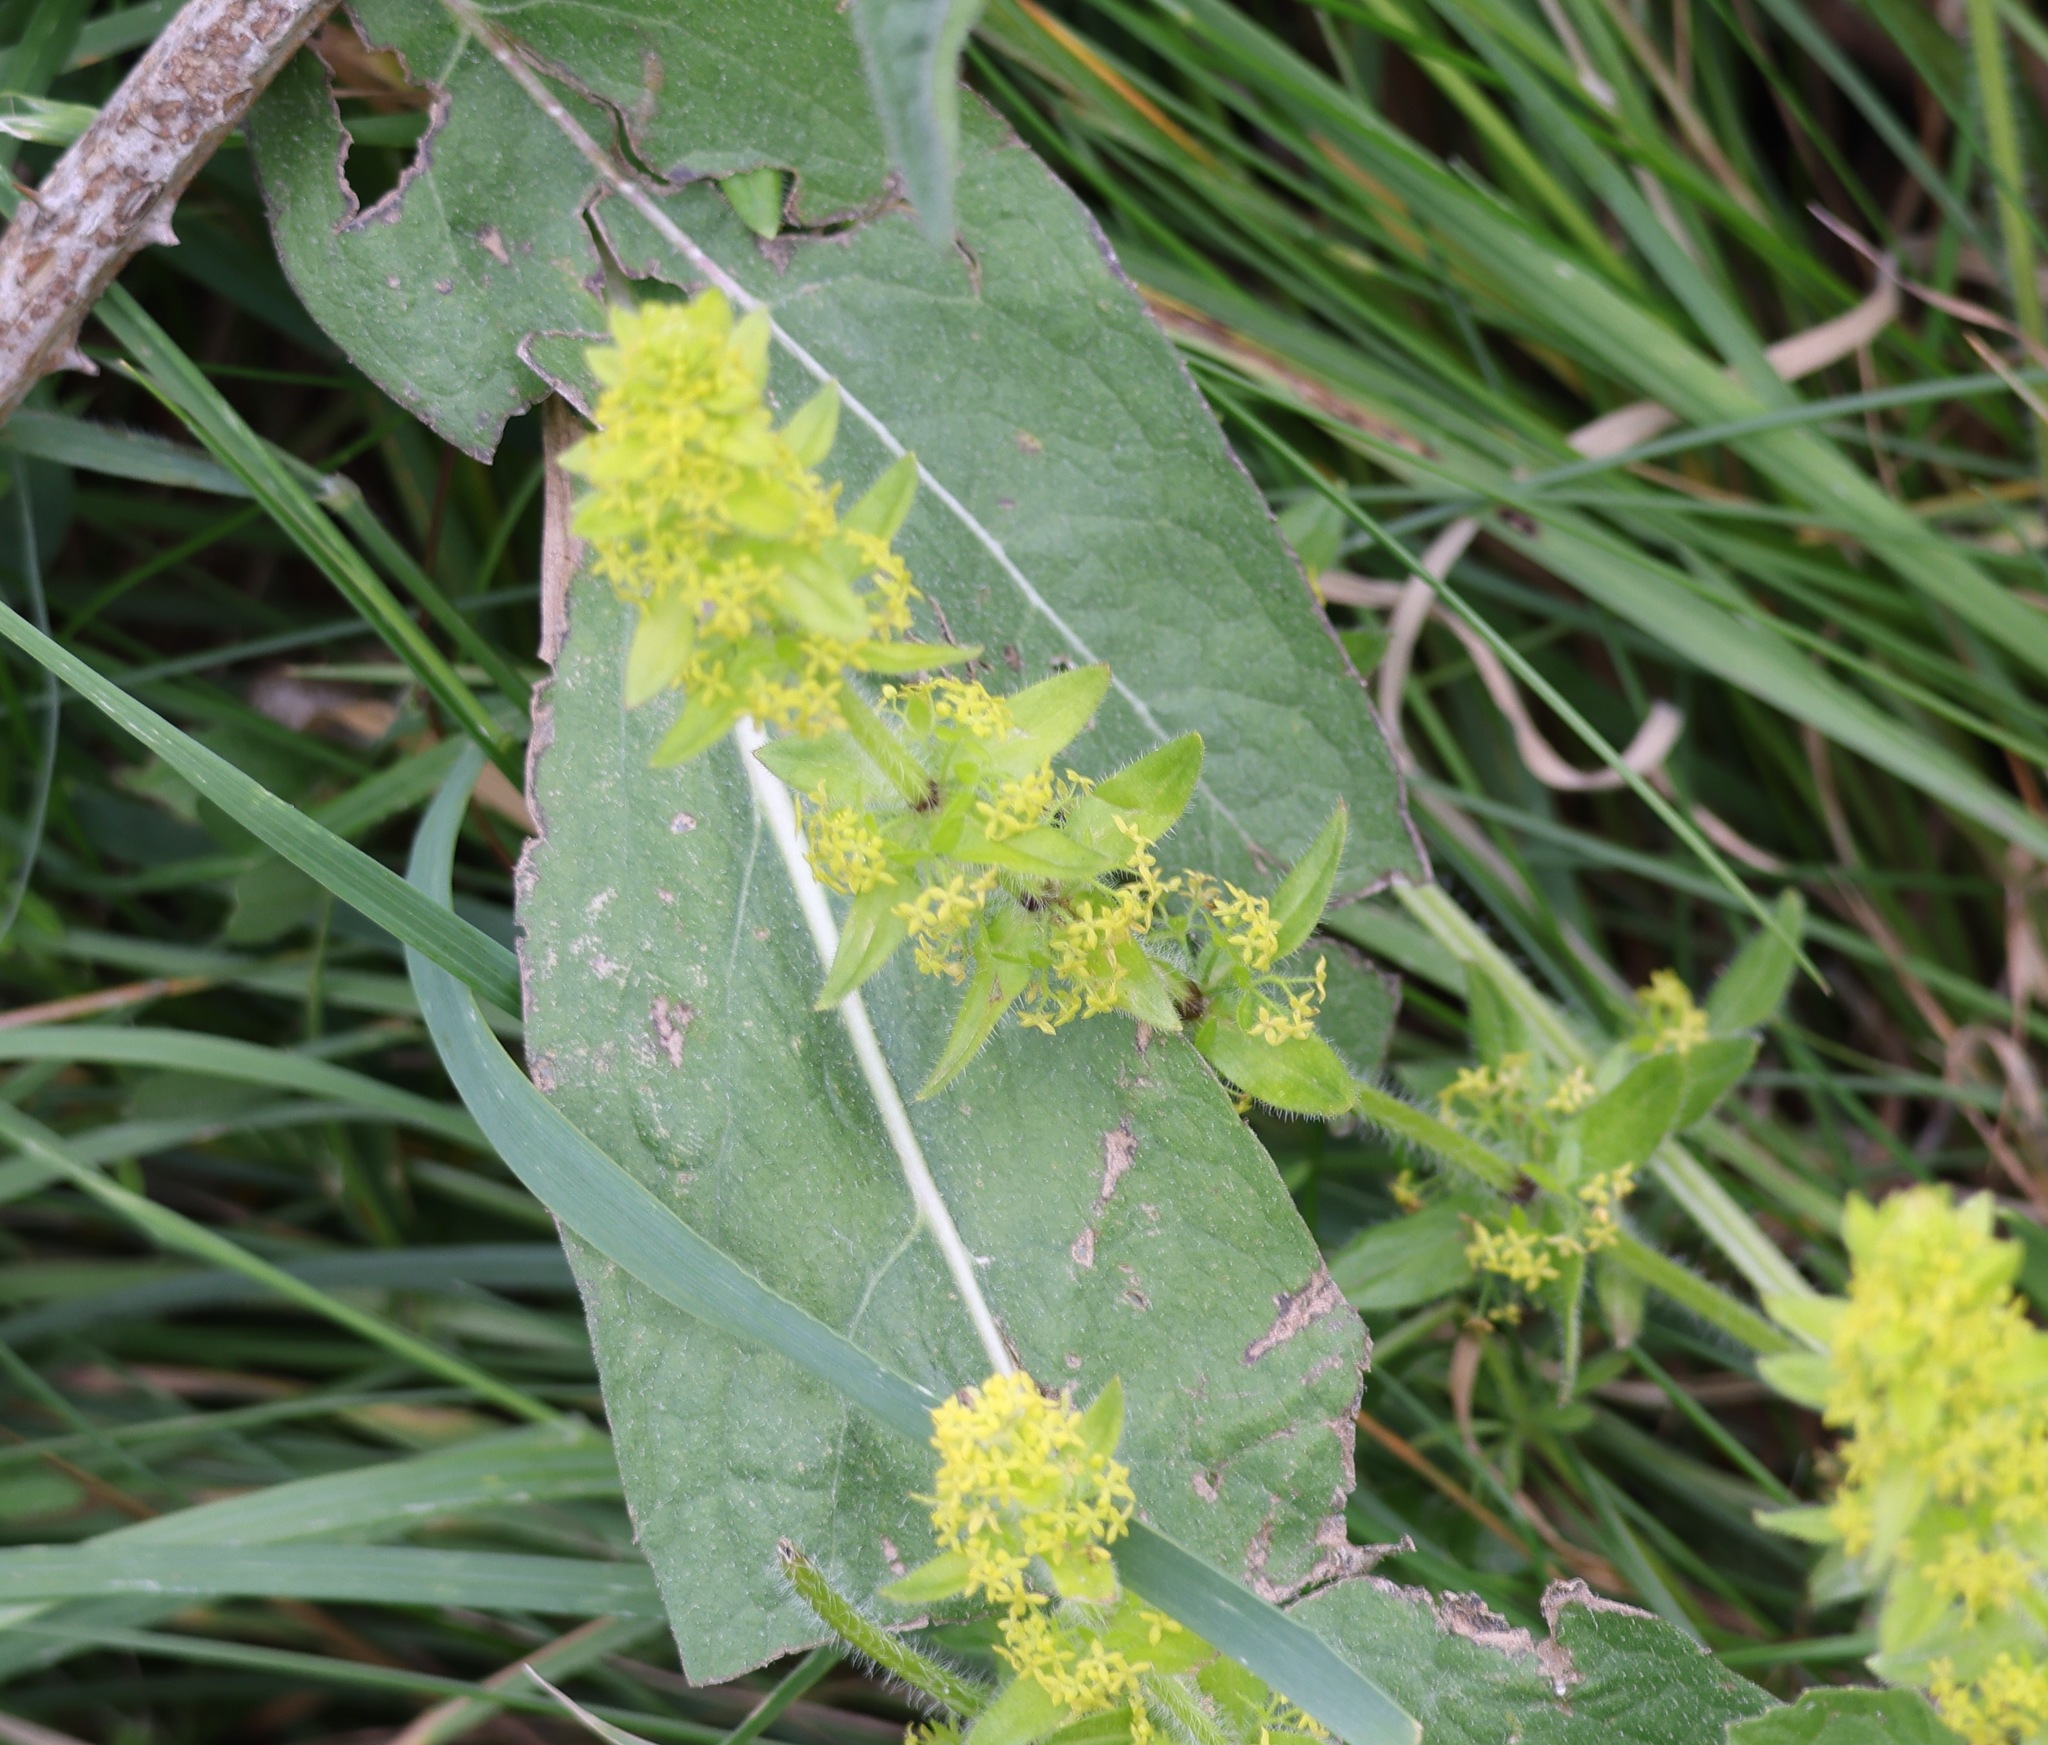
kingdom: Plantae
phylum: Tracheophyta
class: Magnoliopsida
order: Gentianales
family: Rubiaceae
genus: Cruciata
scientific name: Cruciata laevipes
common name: Crosswort
